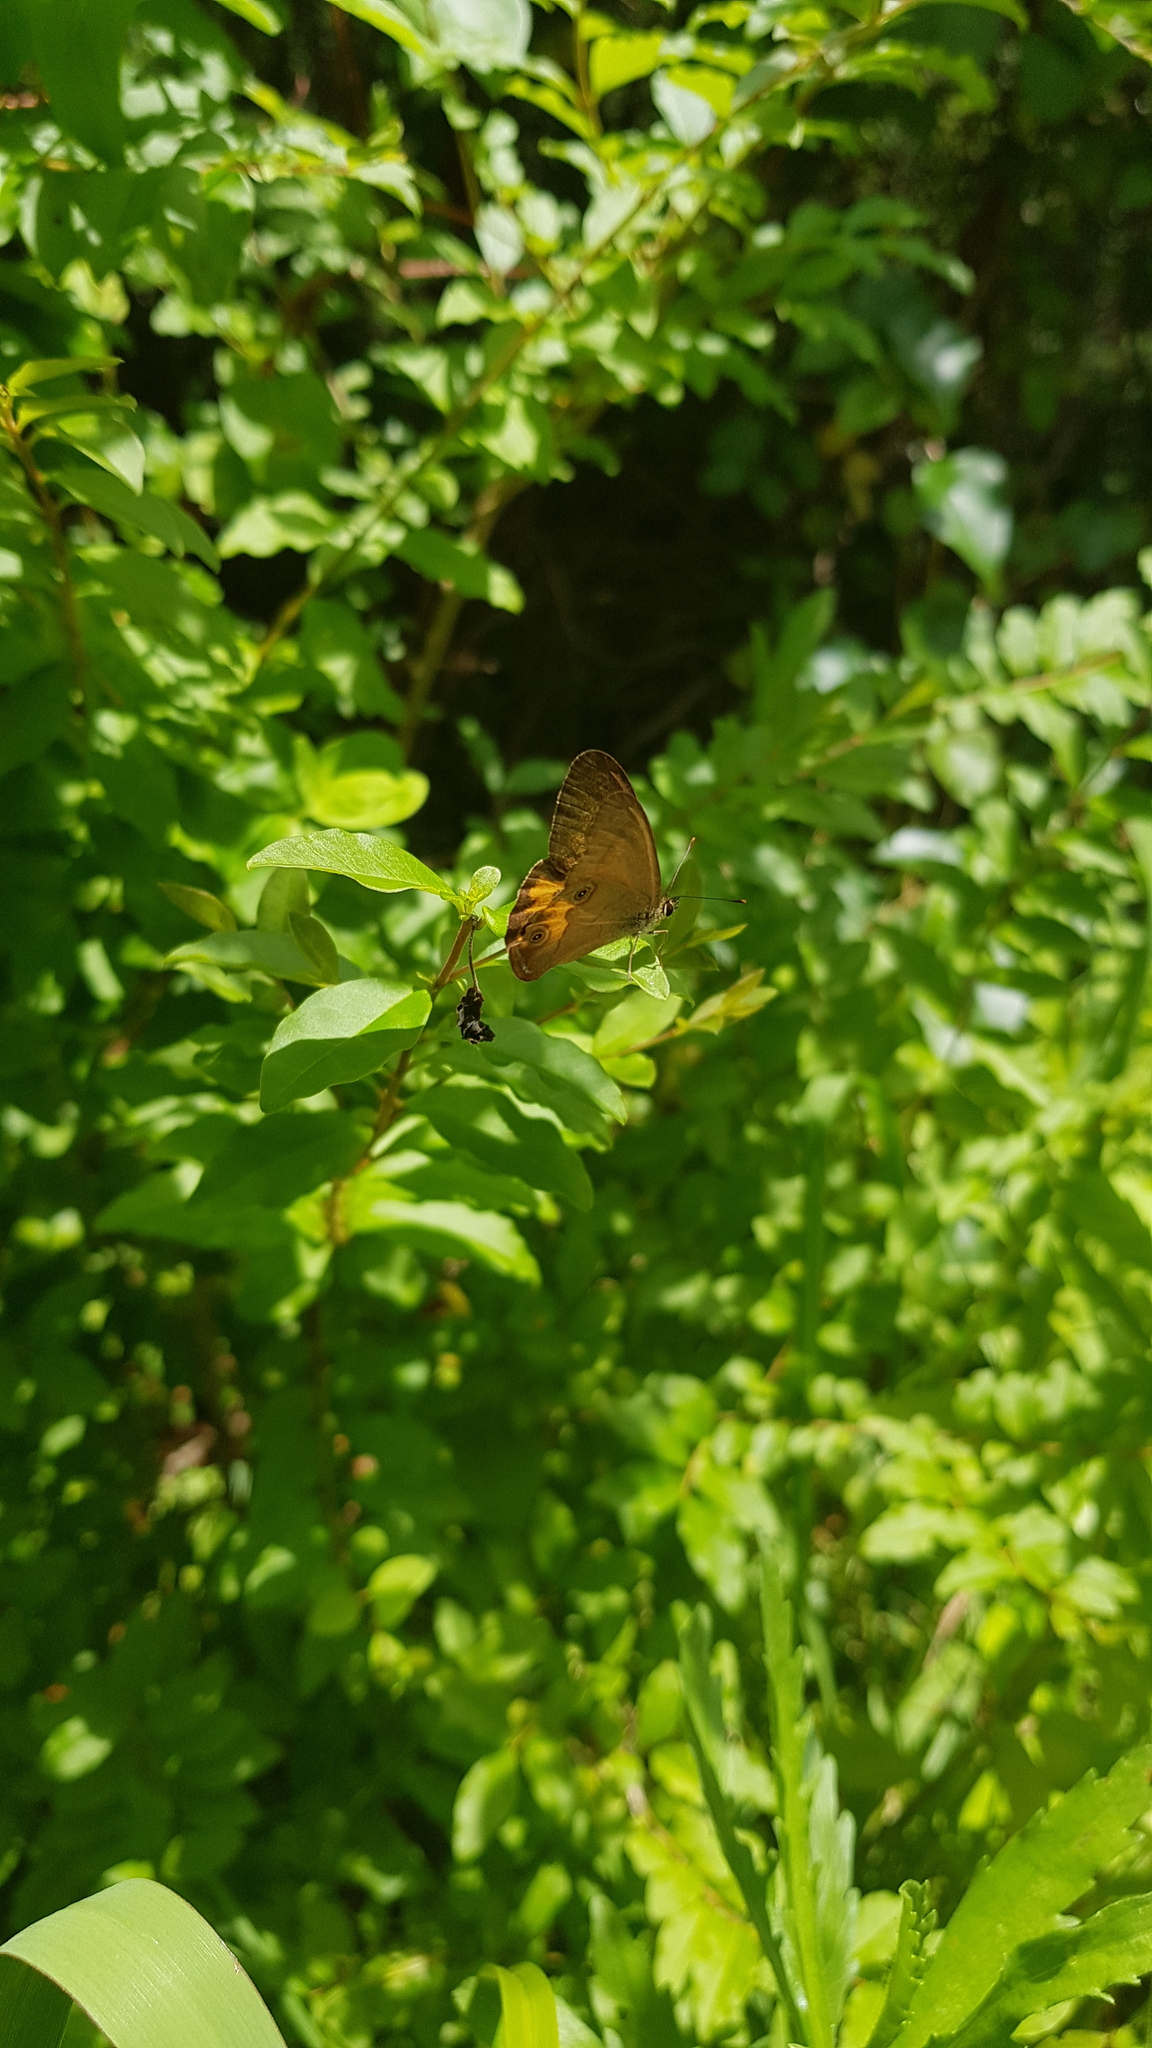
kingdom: Animalia
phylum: Arthropoda
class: Insecta
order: Lepidoptera
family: Nymphalidae
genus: Hypocysta
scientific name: Hypocysta metirius
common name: Brown ringlet
